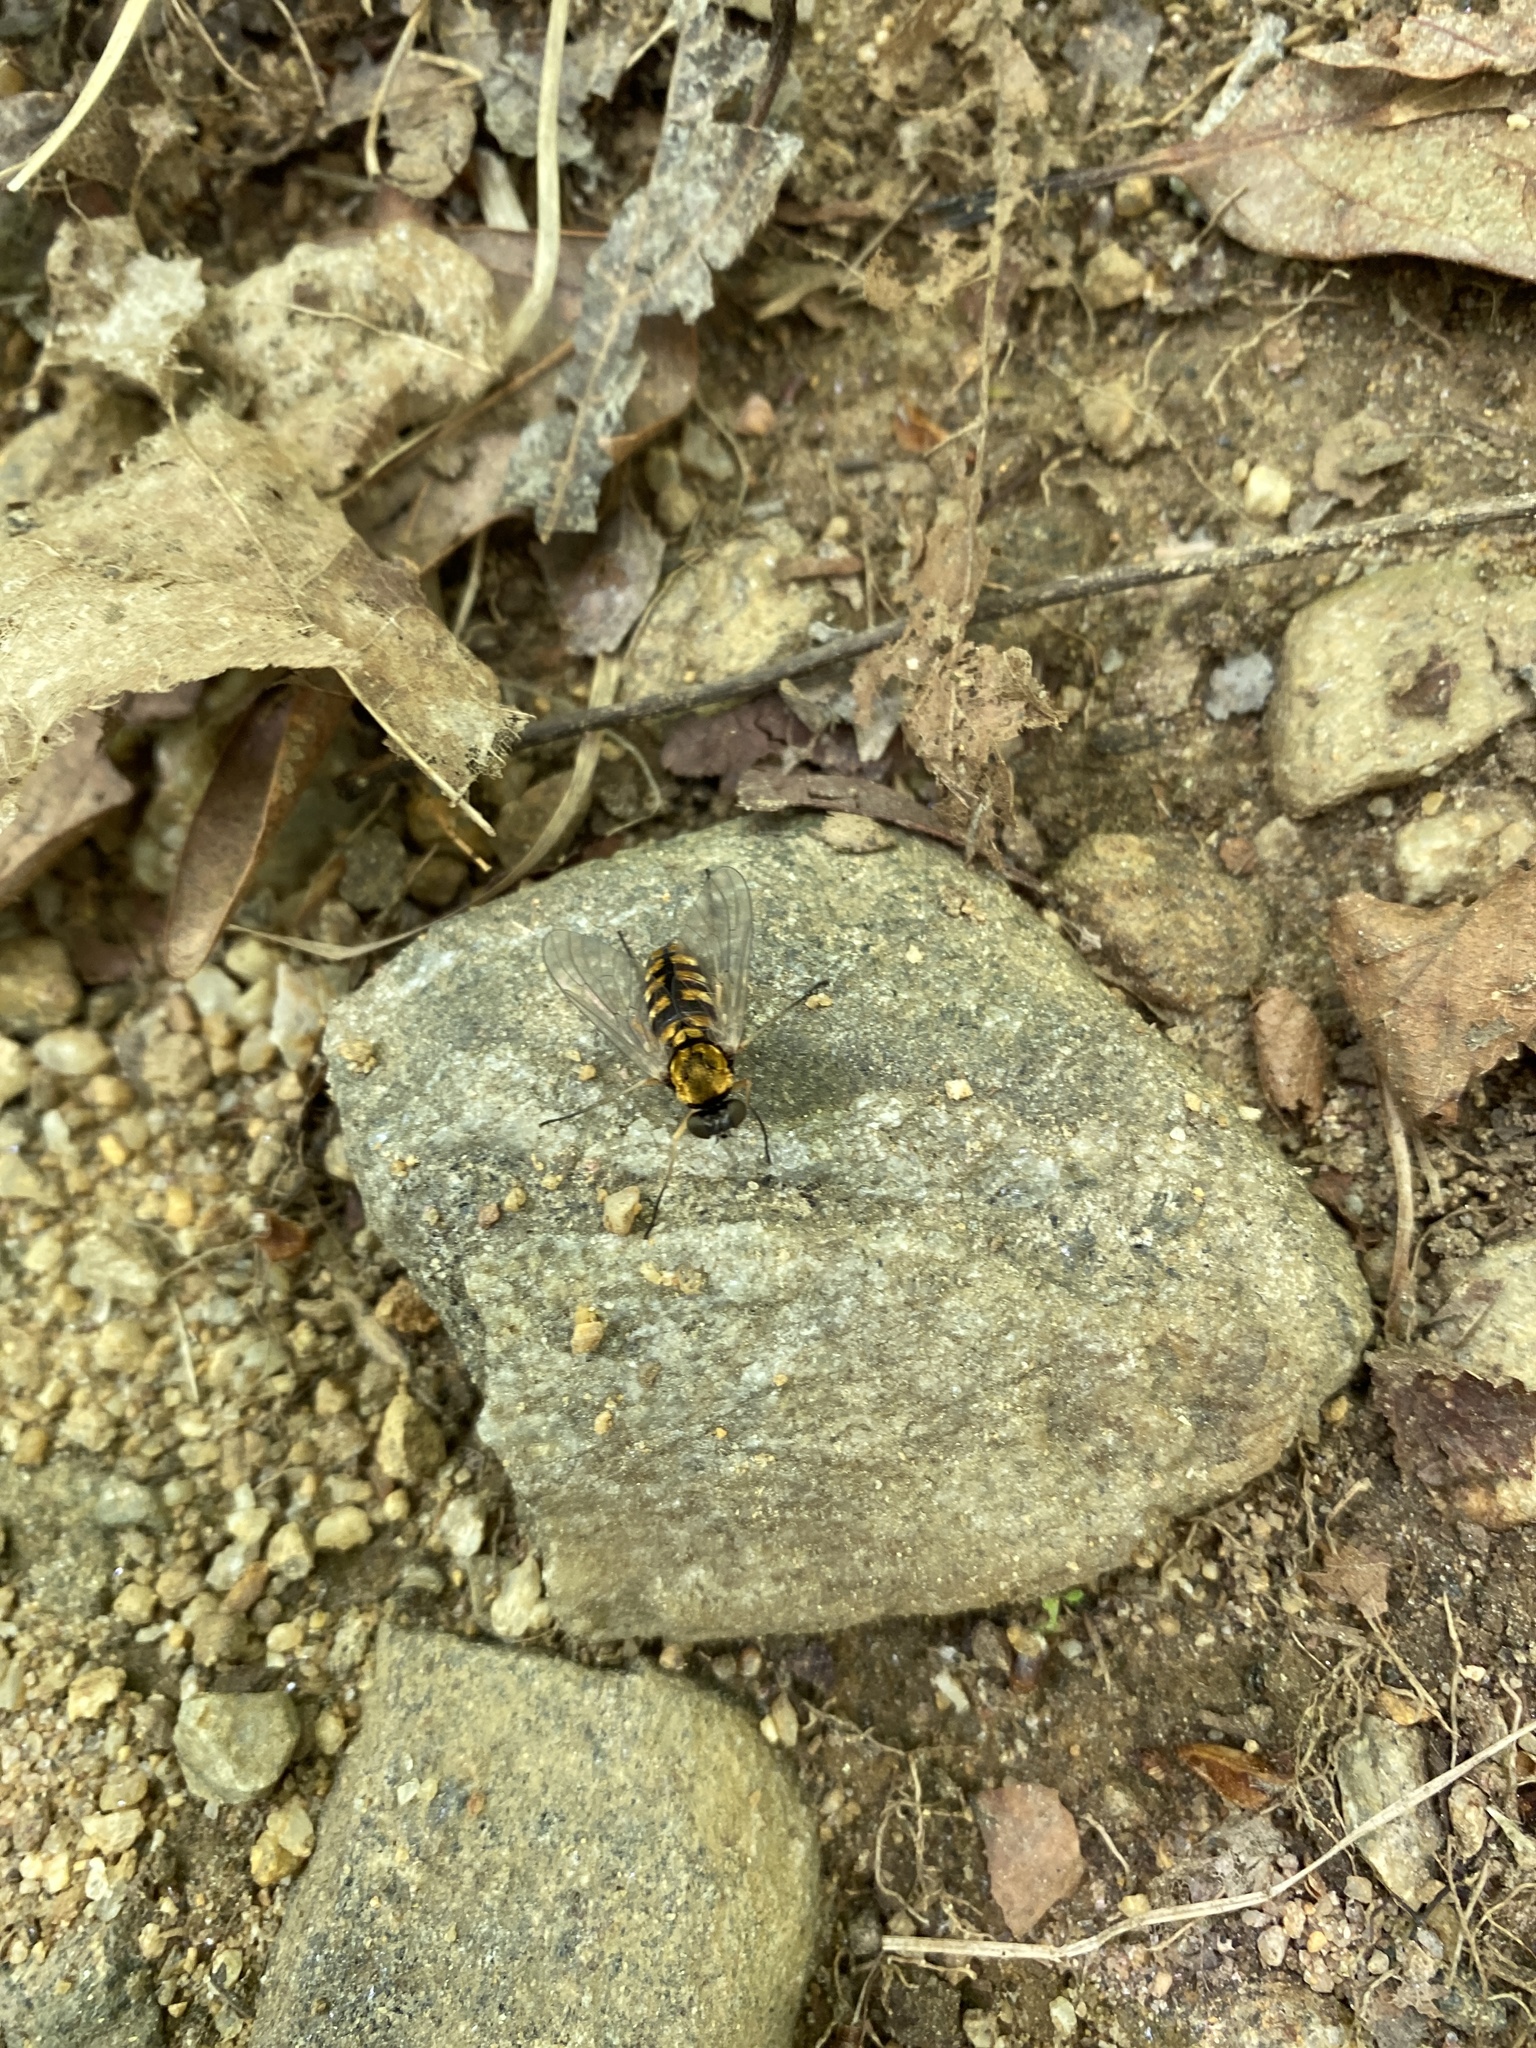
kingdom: Animalia
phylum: Arthropoda
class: Insecta
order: Diptera
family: Rhagionidae
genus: Chrysopilus
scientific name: Chrysopilus ornatus
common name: Ornate snipe fly
